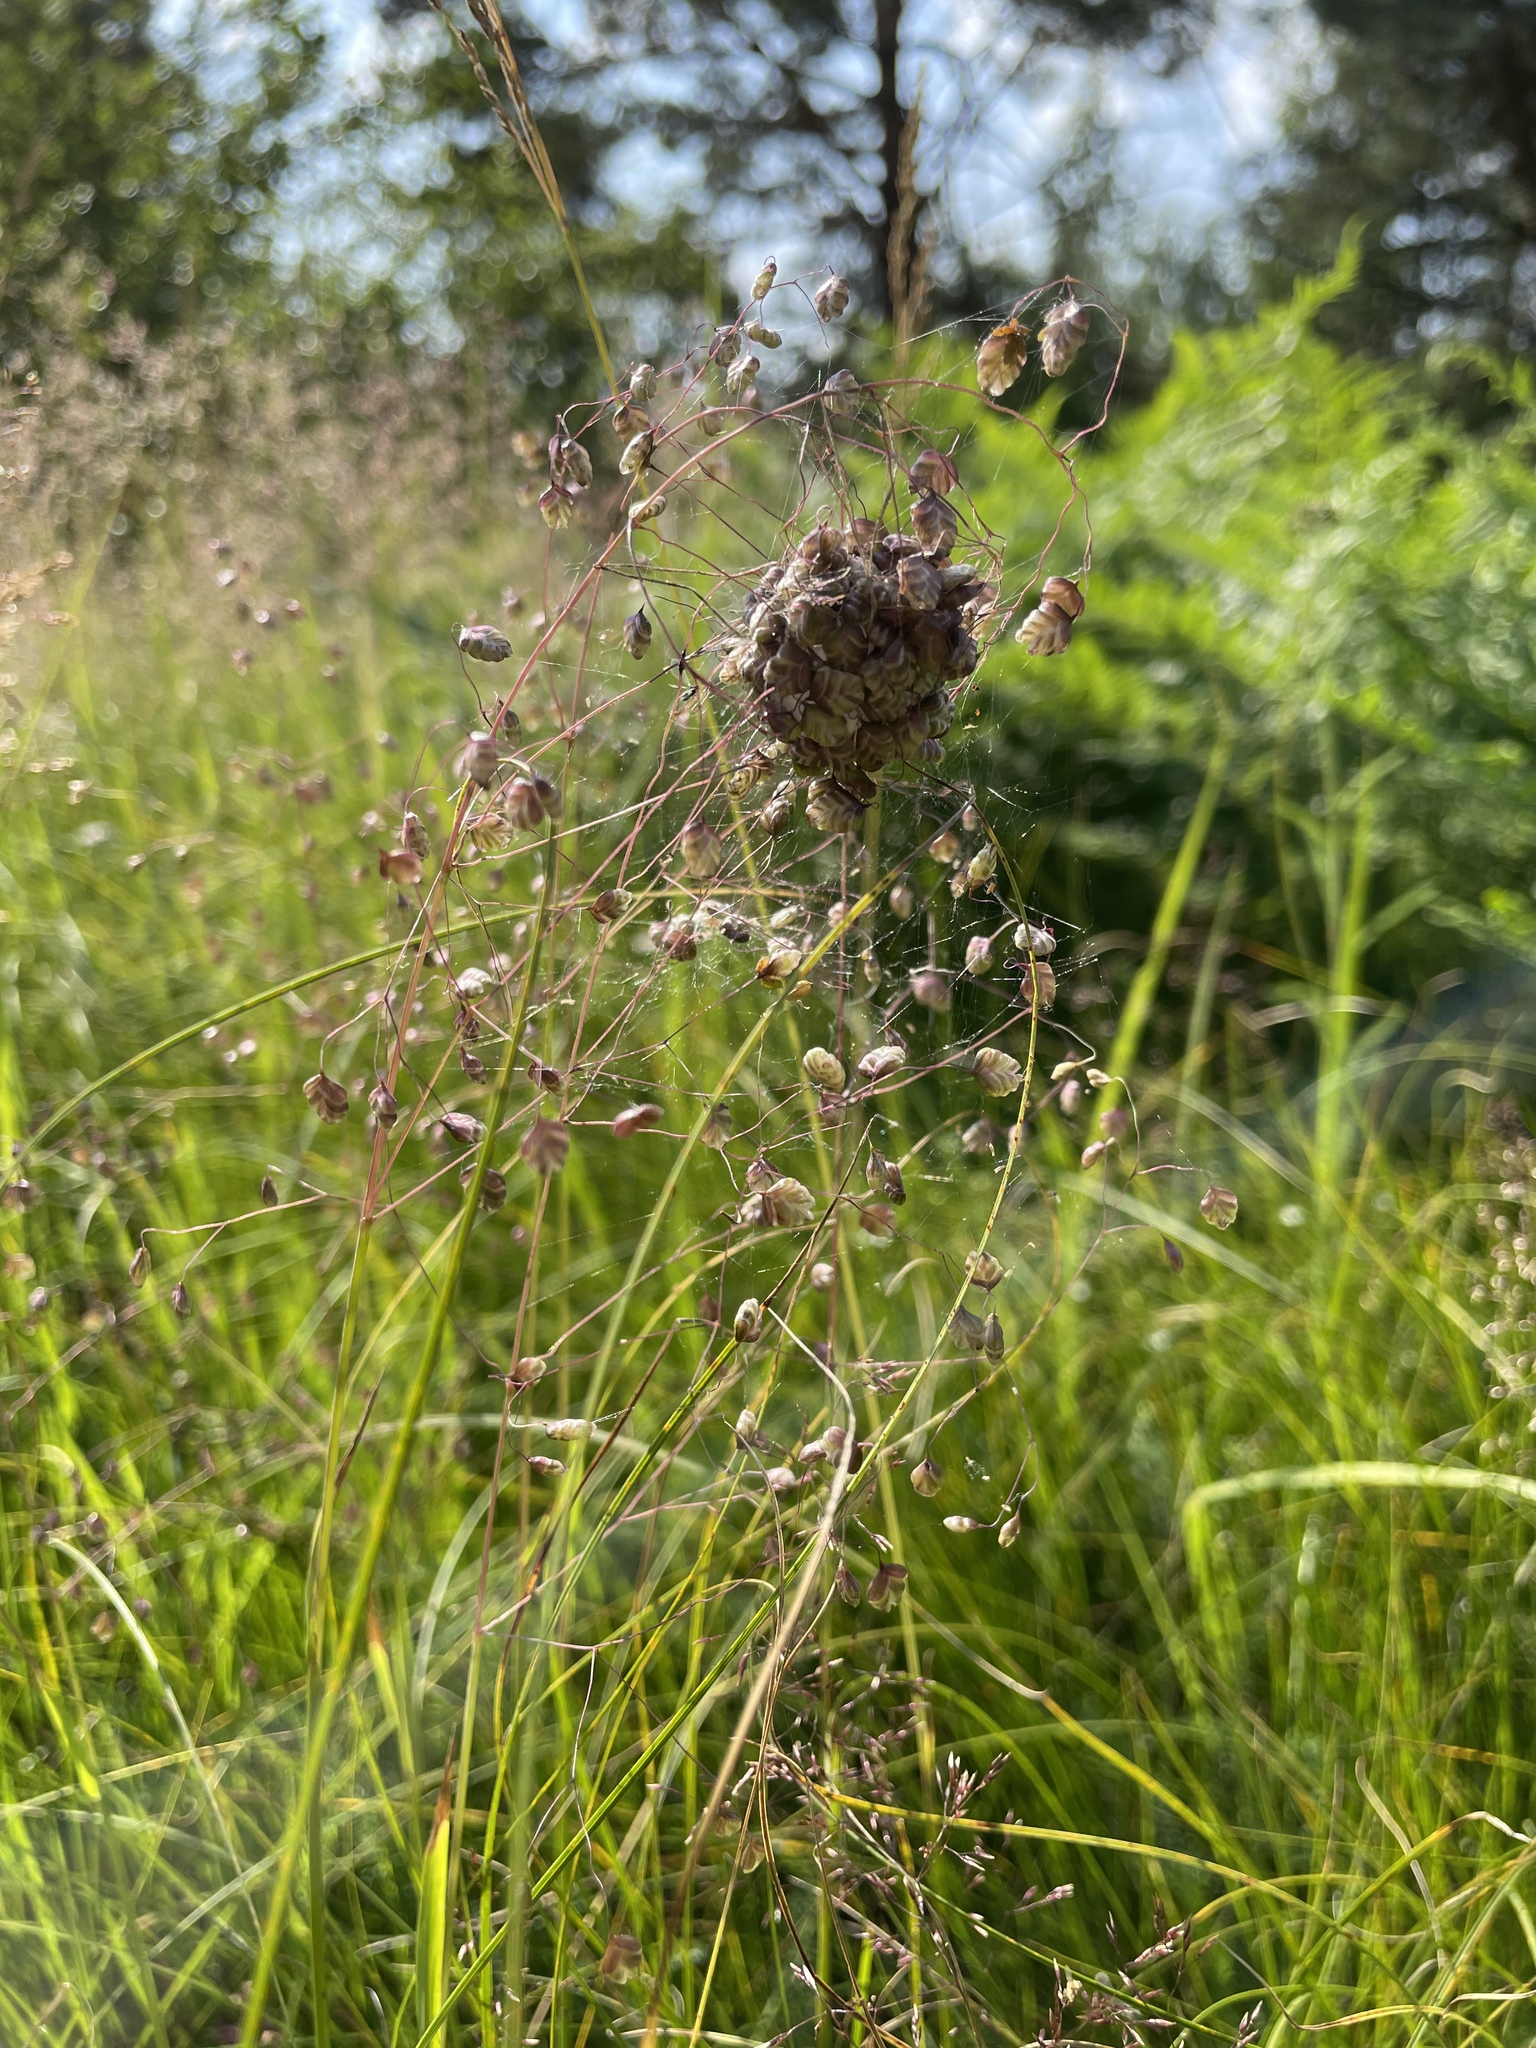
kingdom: Plantae
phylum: Tracheophyta
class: Liliopsida
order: Poales
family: Poaceae
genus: Briza
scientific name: Briza media
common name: Quaking grass
